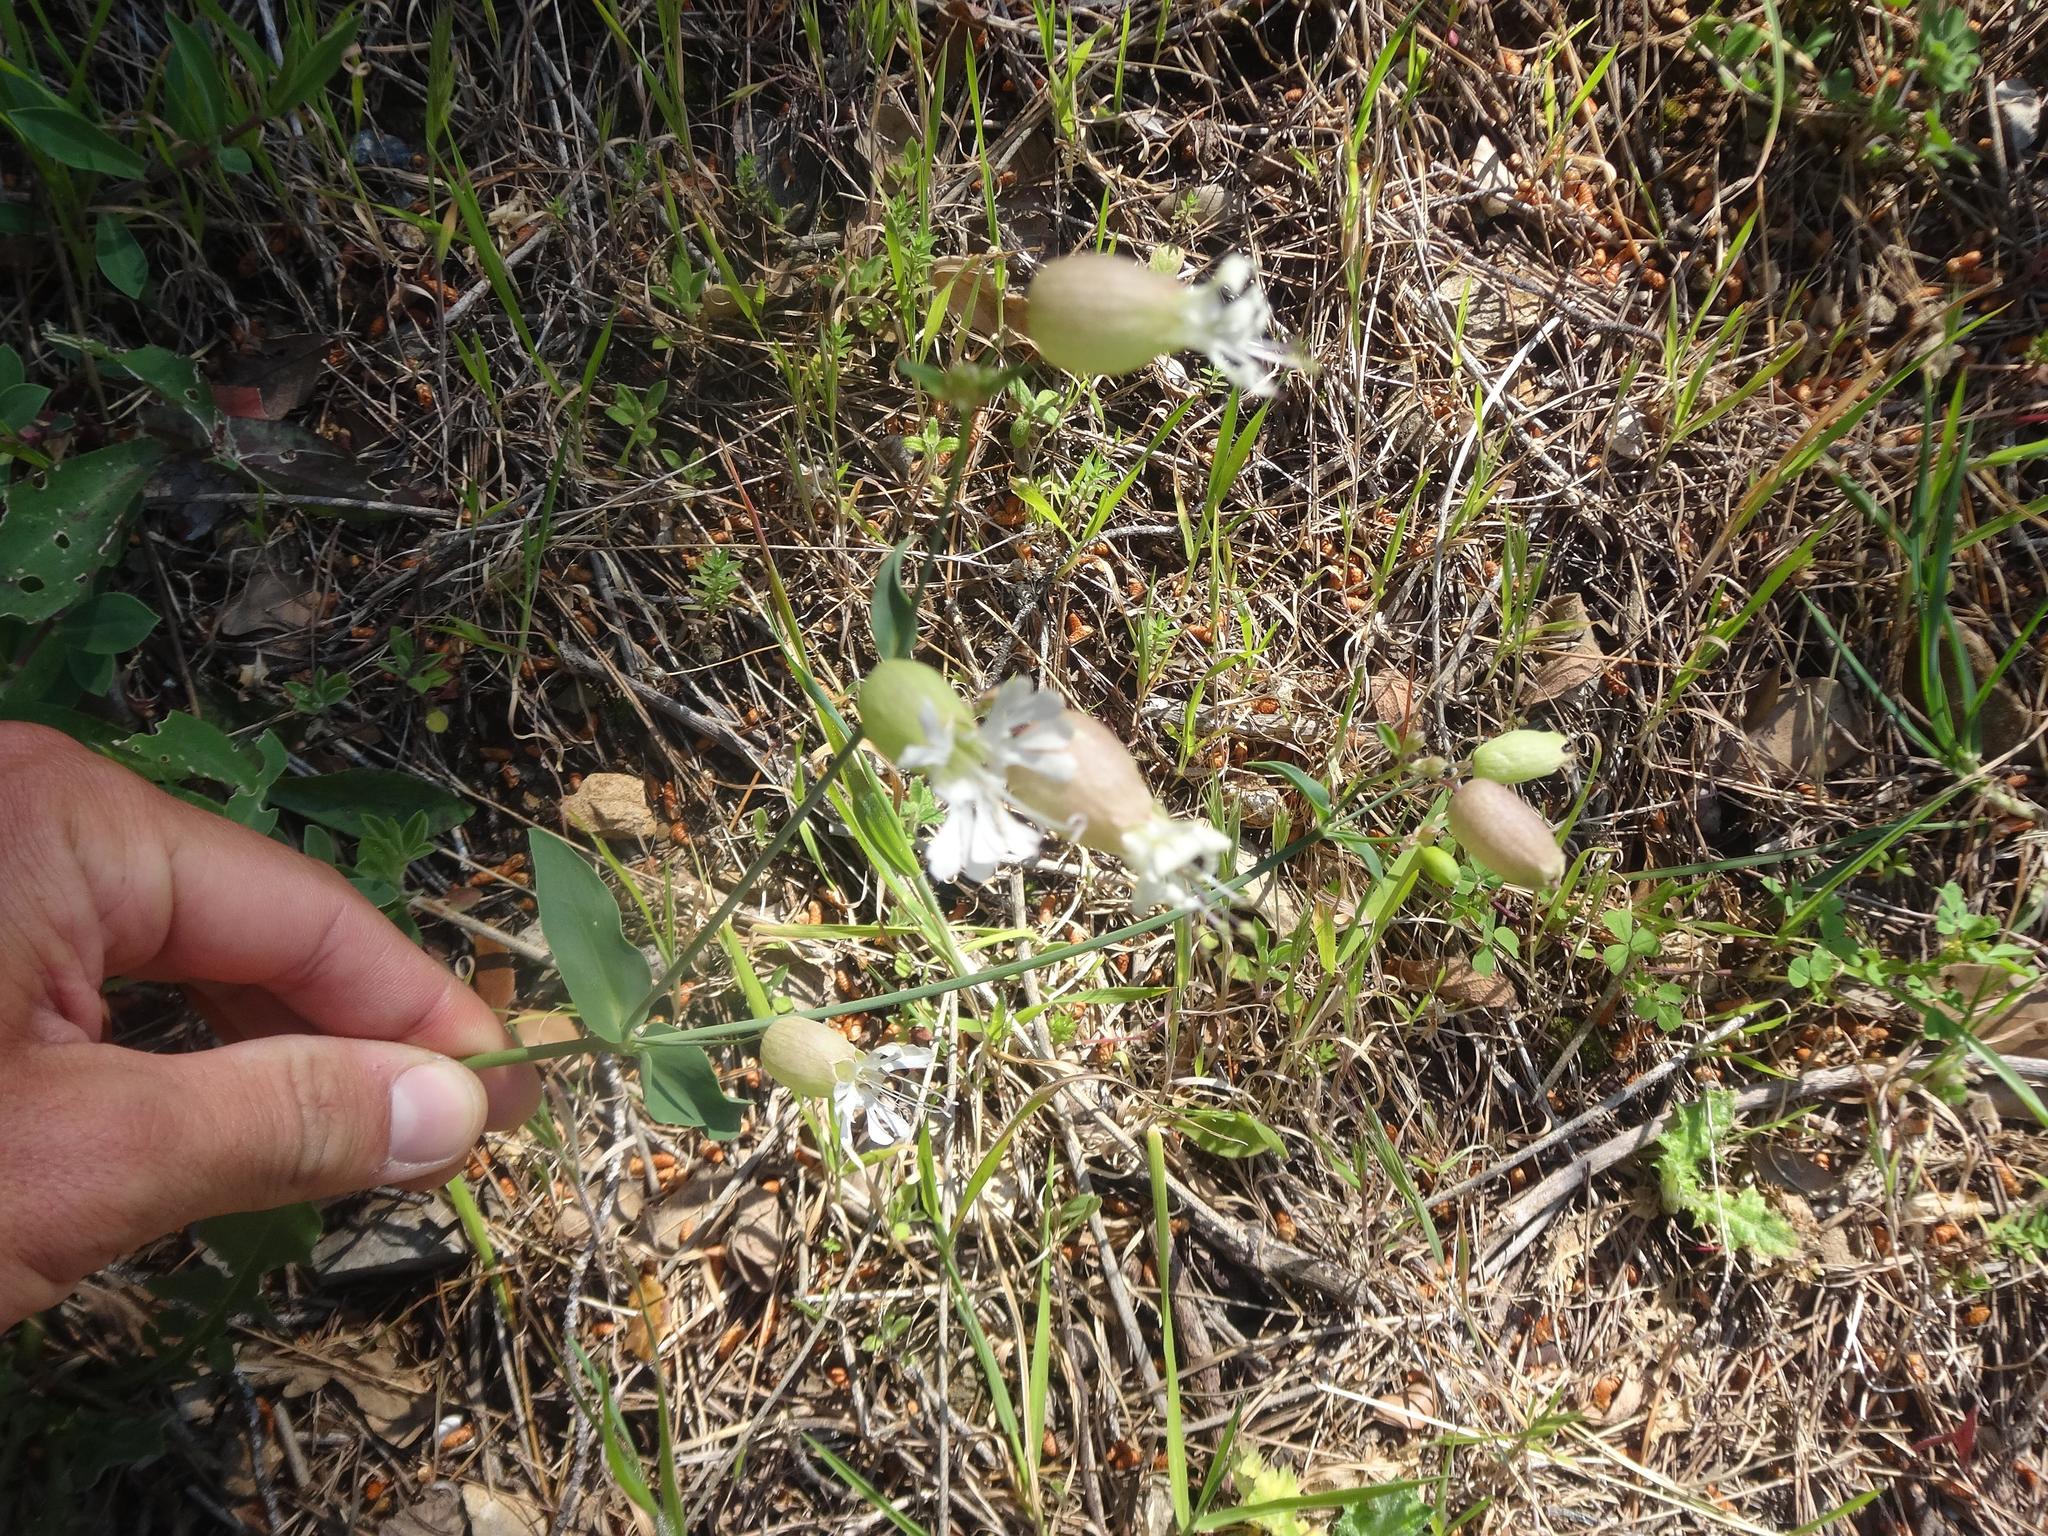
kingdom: Plantae
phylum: Tracheophyta
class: Magnoliopsida
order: Caryophyllales
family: Caryophyllaceae
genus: Silene
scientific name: Silene vulgaris
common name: Bladder campion
